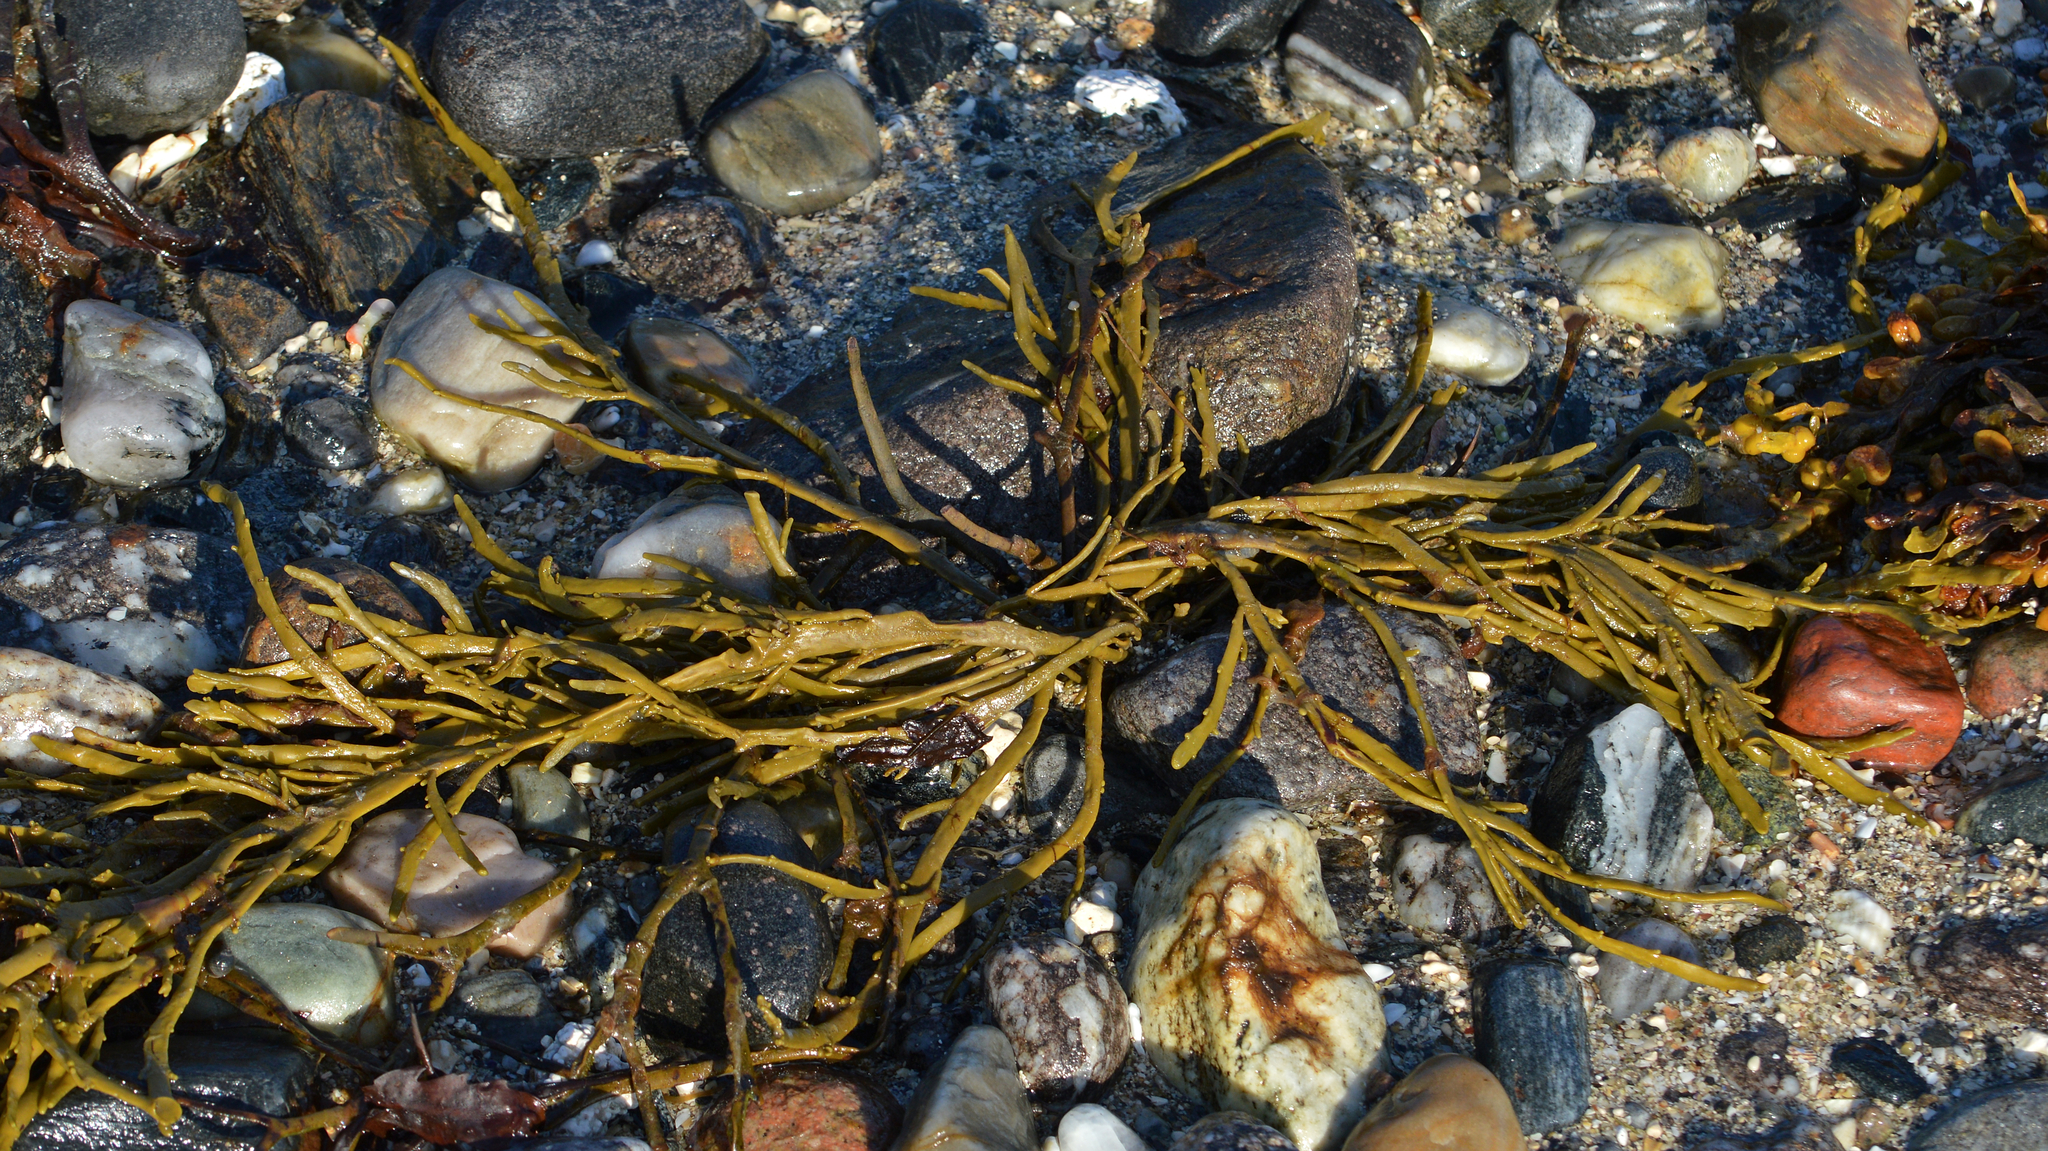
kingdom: Chromista
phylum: Ochrophyta
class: Phaeophyceae
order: Fucales
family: Fucaceae
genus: Ascophyllum
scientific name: Ascophyllum nodosum
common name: Knotted wrack
